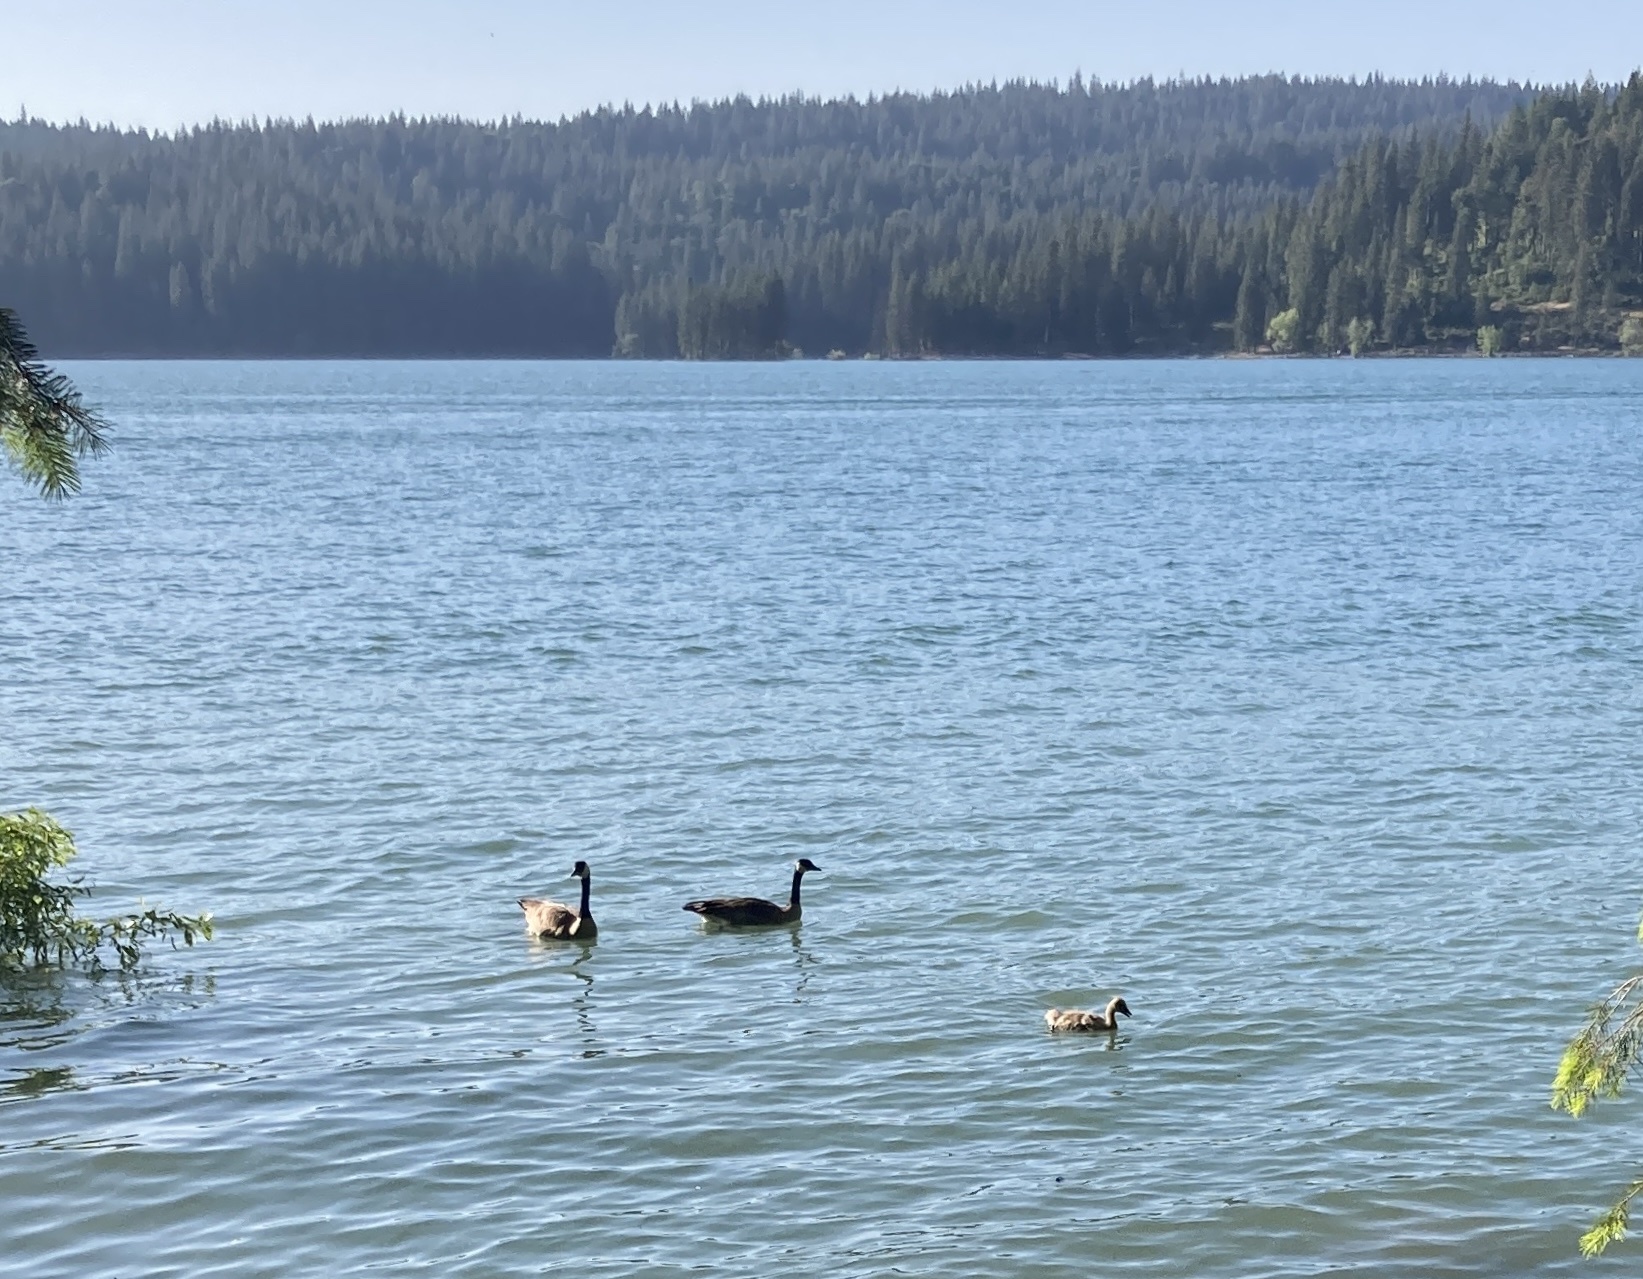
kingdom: Animalia
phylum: Chordata
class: Aves
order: Anseriformes
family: Anatidae
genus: Branta
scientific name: Branta canadensis
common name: Canada goose
